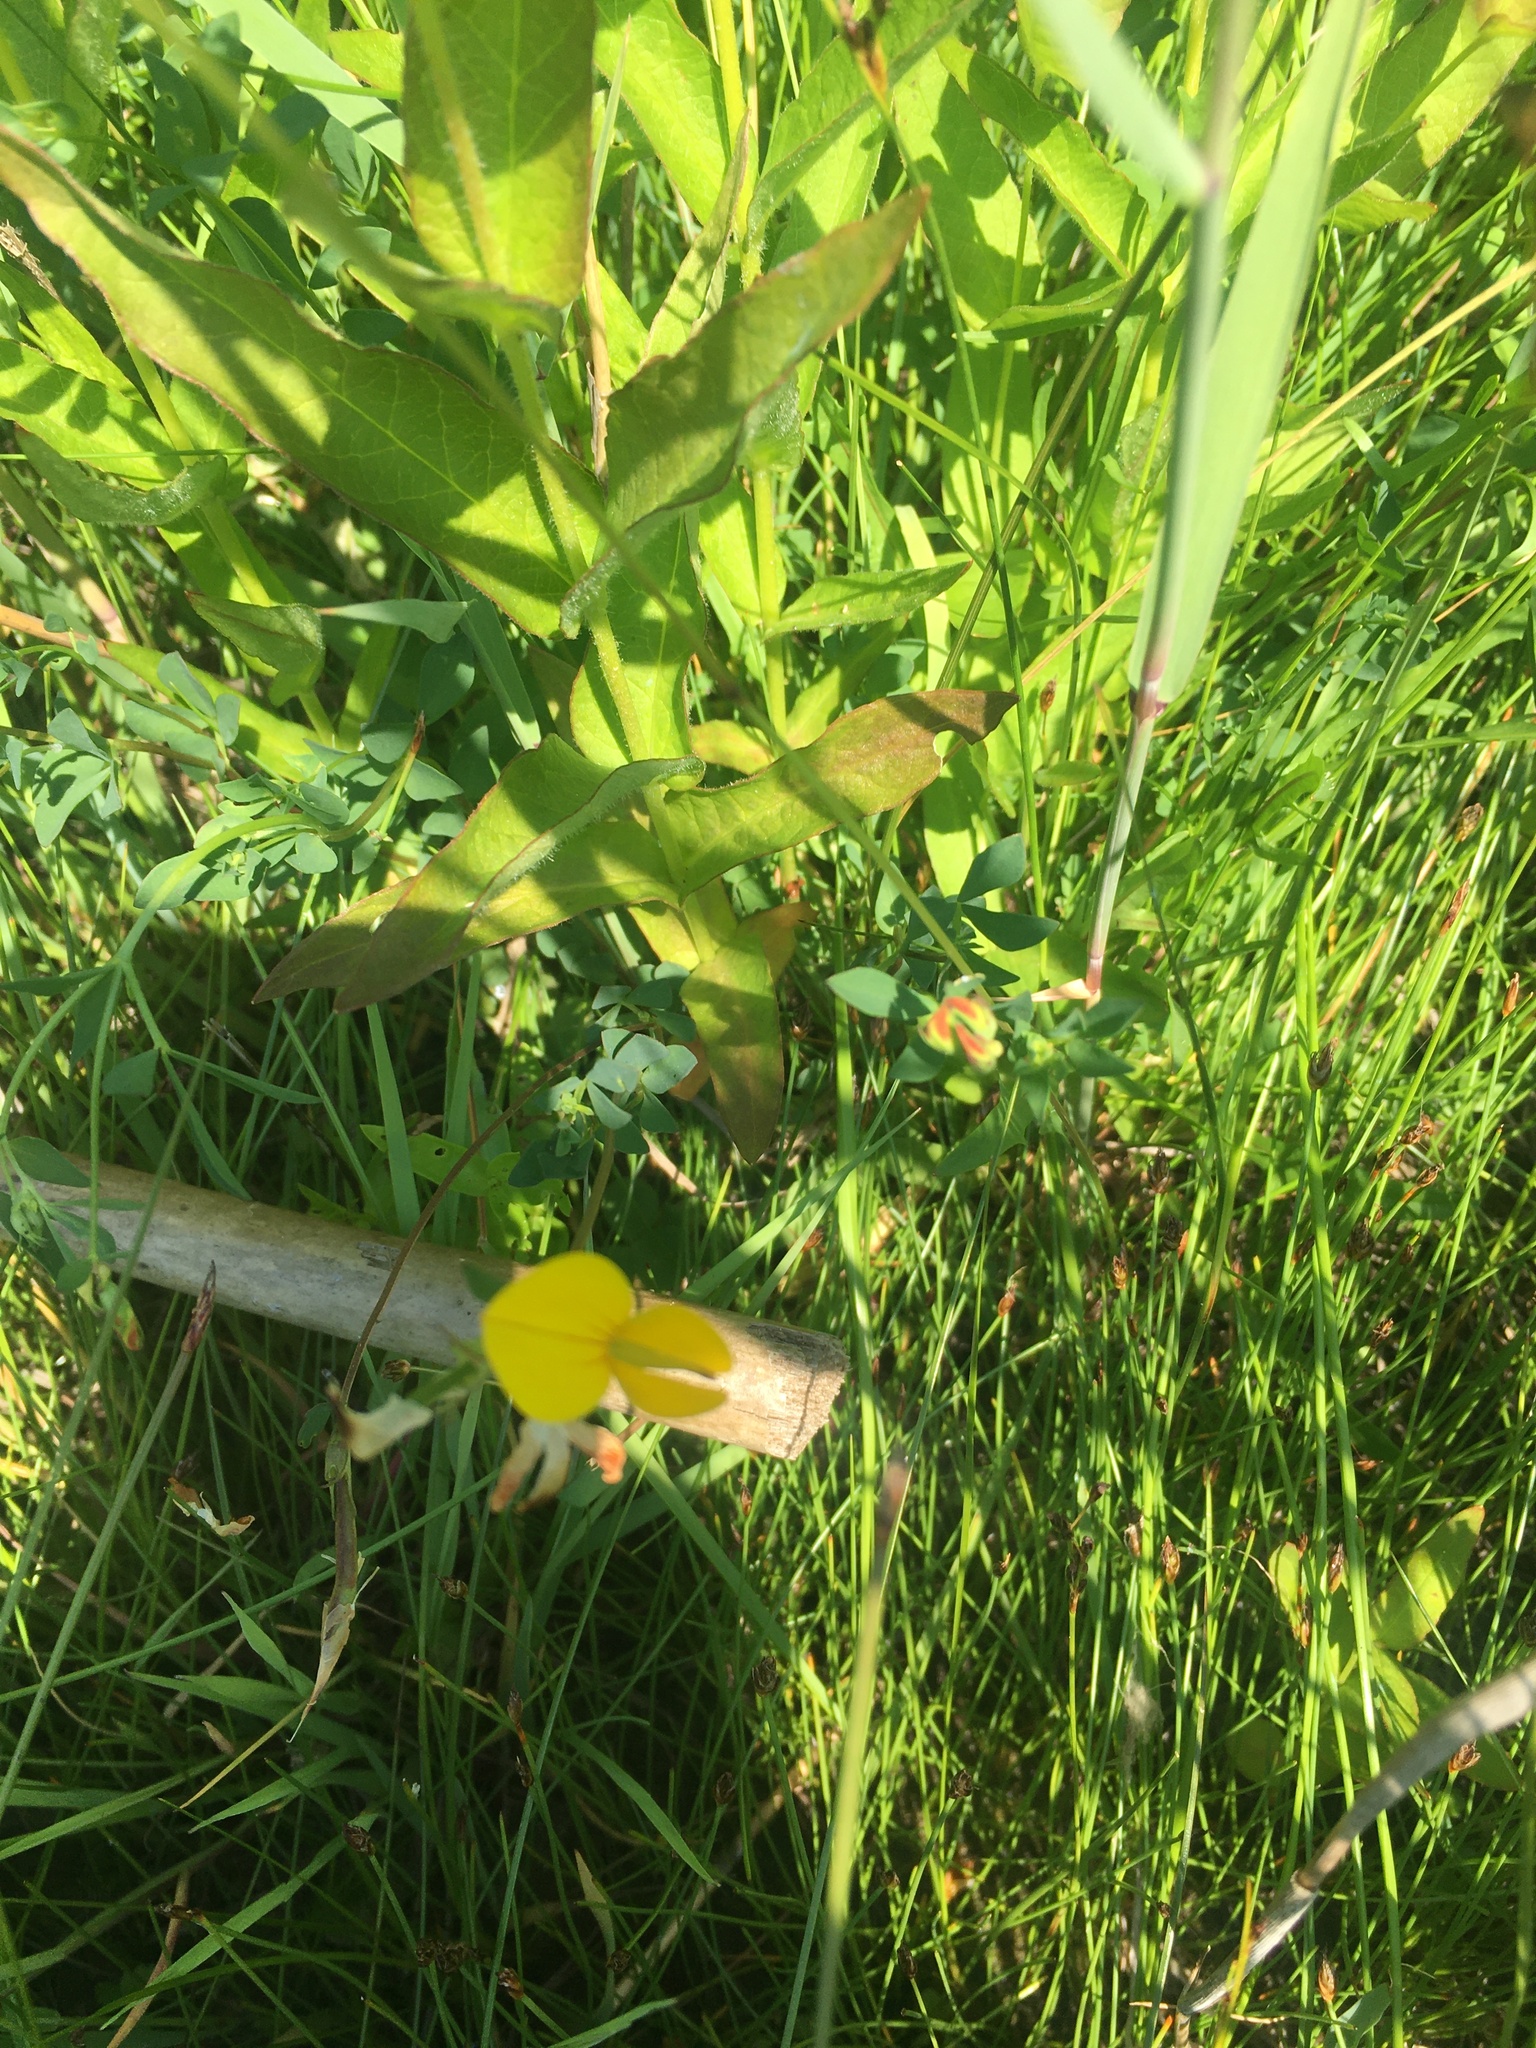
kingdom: Plantae
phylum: Tracheophyta
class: Magnoliopsida
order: Fabales
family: Fabaceae
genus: Lotus
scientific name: Lotus corniculatus
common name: Common bird's-foot-trefoil
